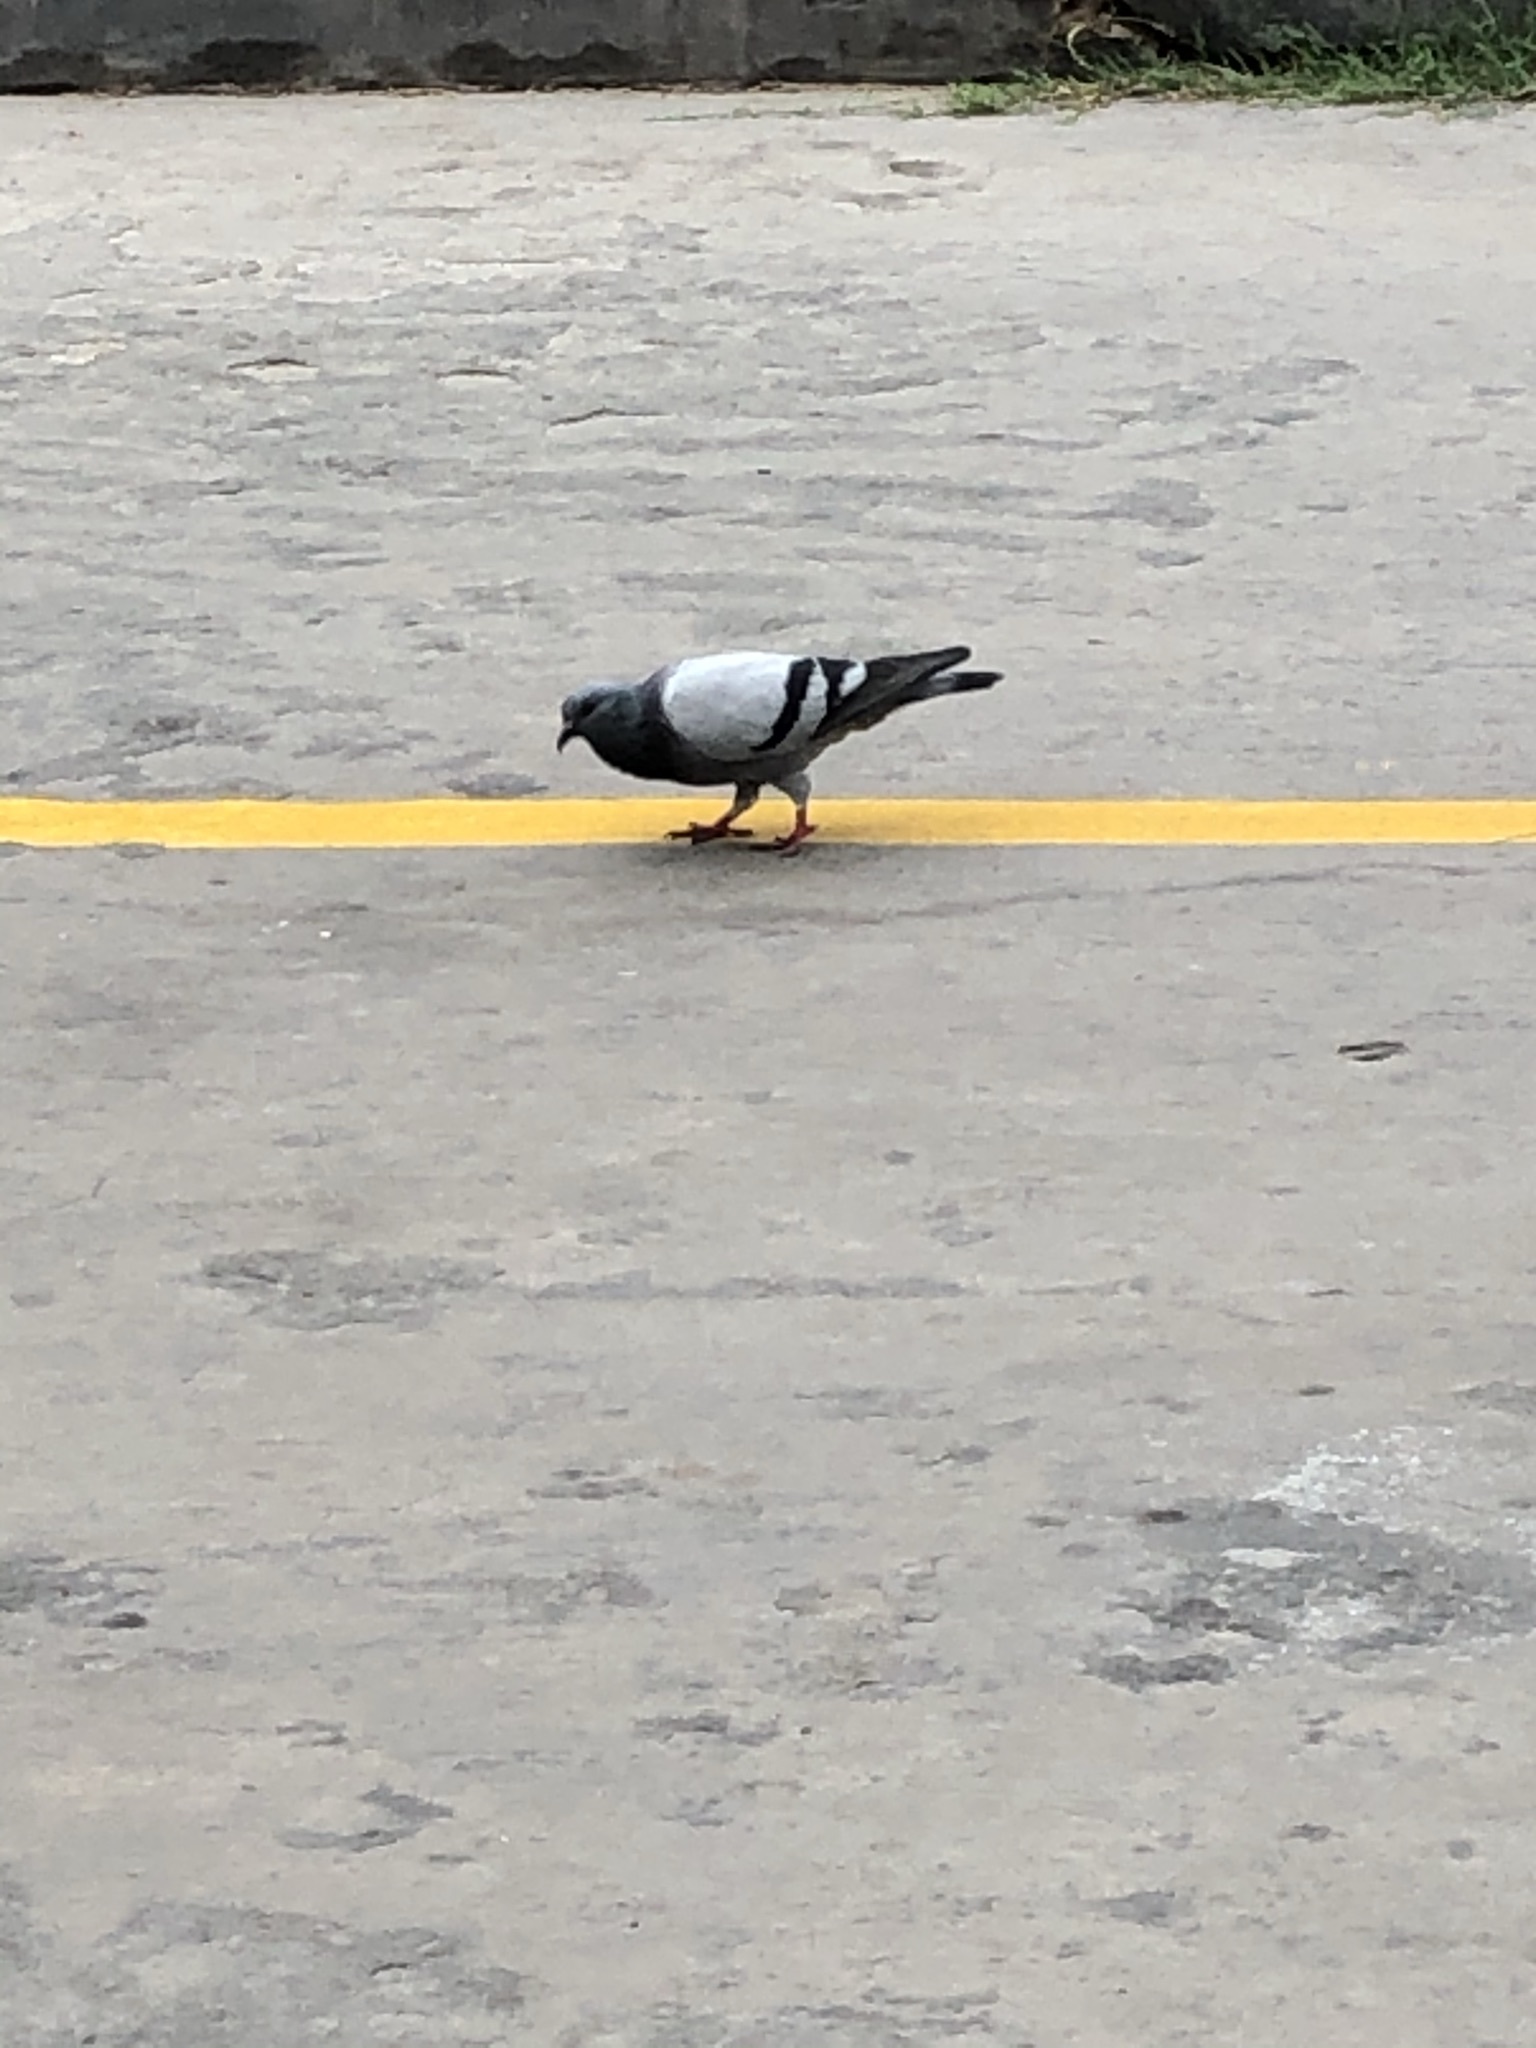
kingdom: Animalia
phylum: Chordata
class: Aves
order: Columbiformes
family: Columbidae
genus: Columba
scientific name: Columba livia
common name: Rock pigeon
